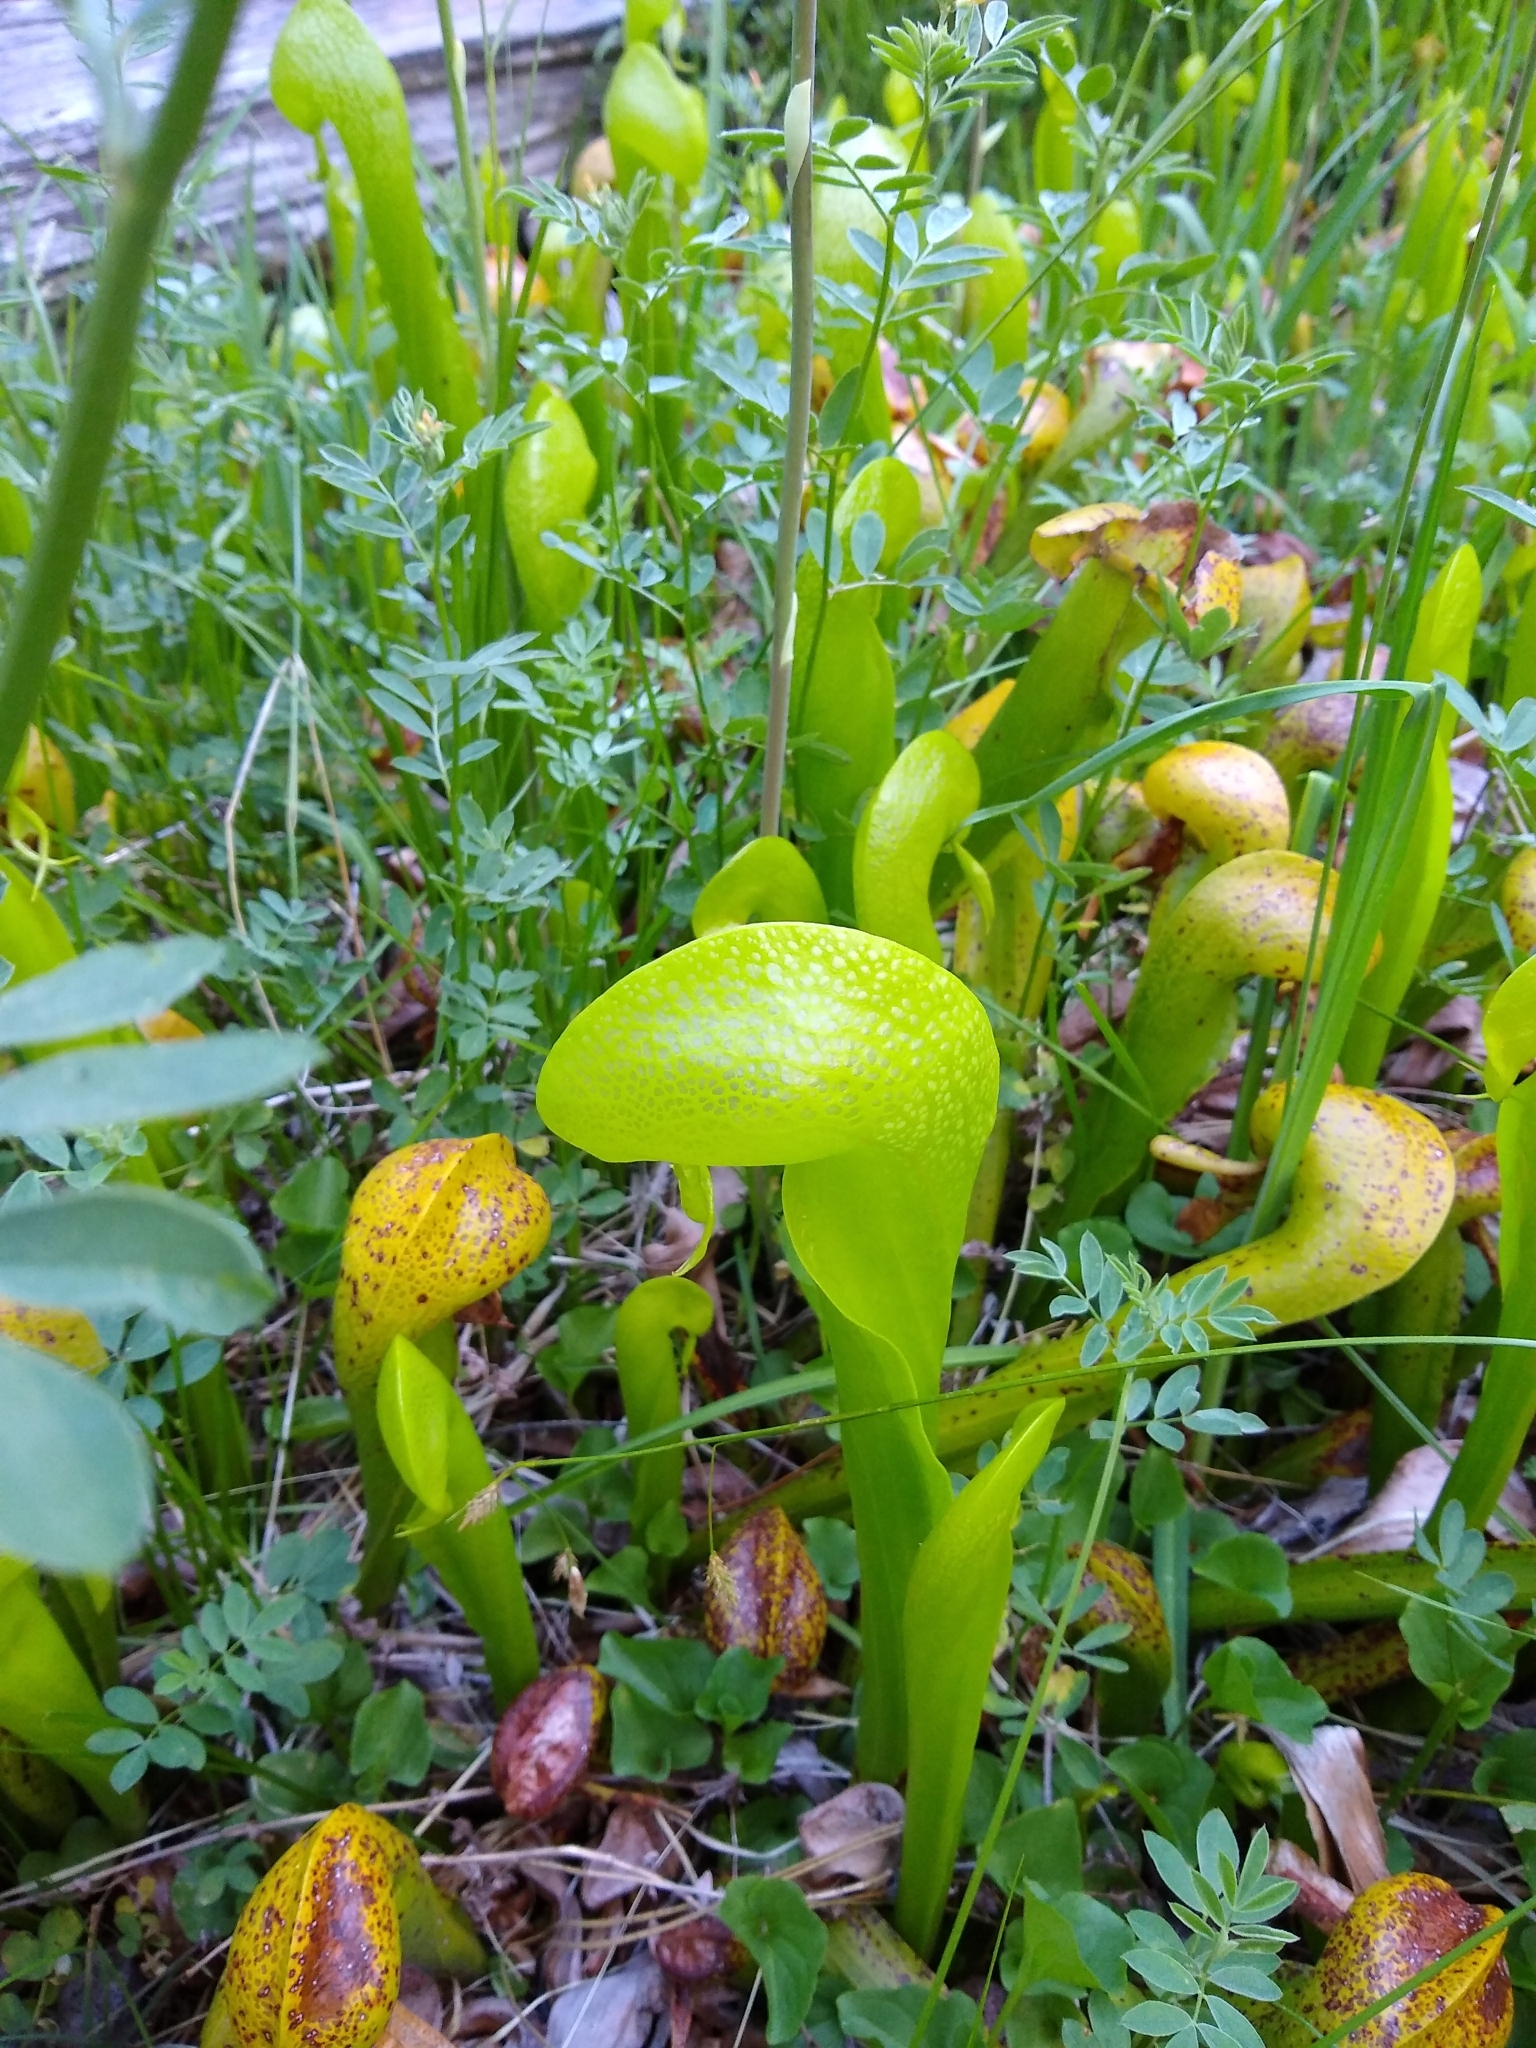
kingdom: Plantae
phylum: Tracheophyta
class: Magnoliopsida
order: Ericales
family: Sarraceniaceae
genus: Darlingtonia
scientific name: Darlingtonia californica
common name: California pitcher plant
